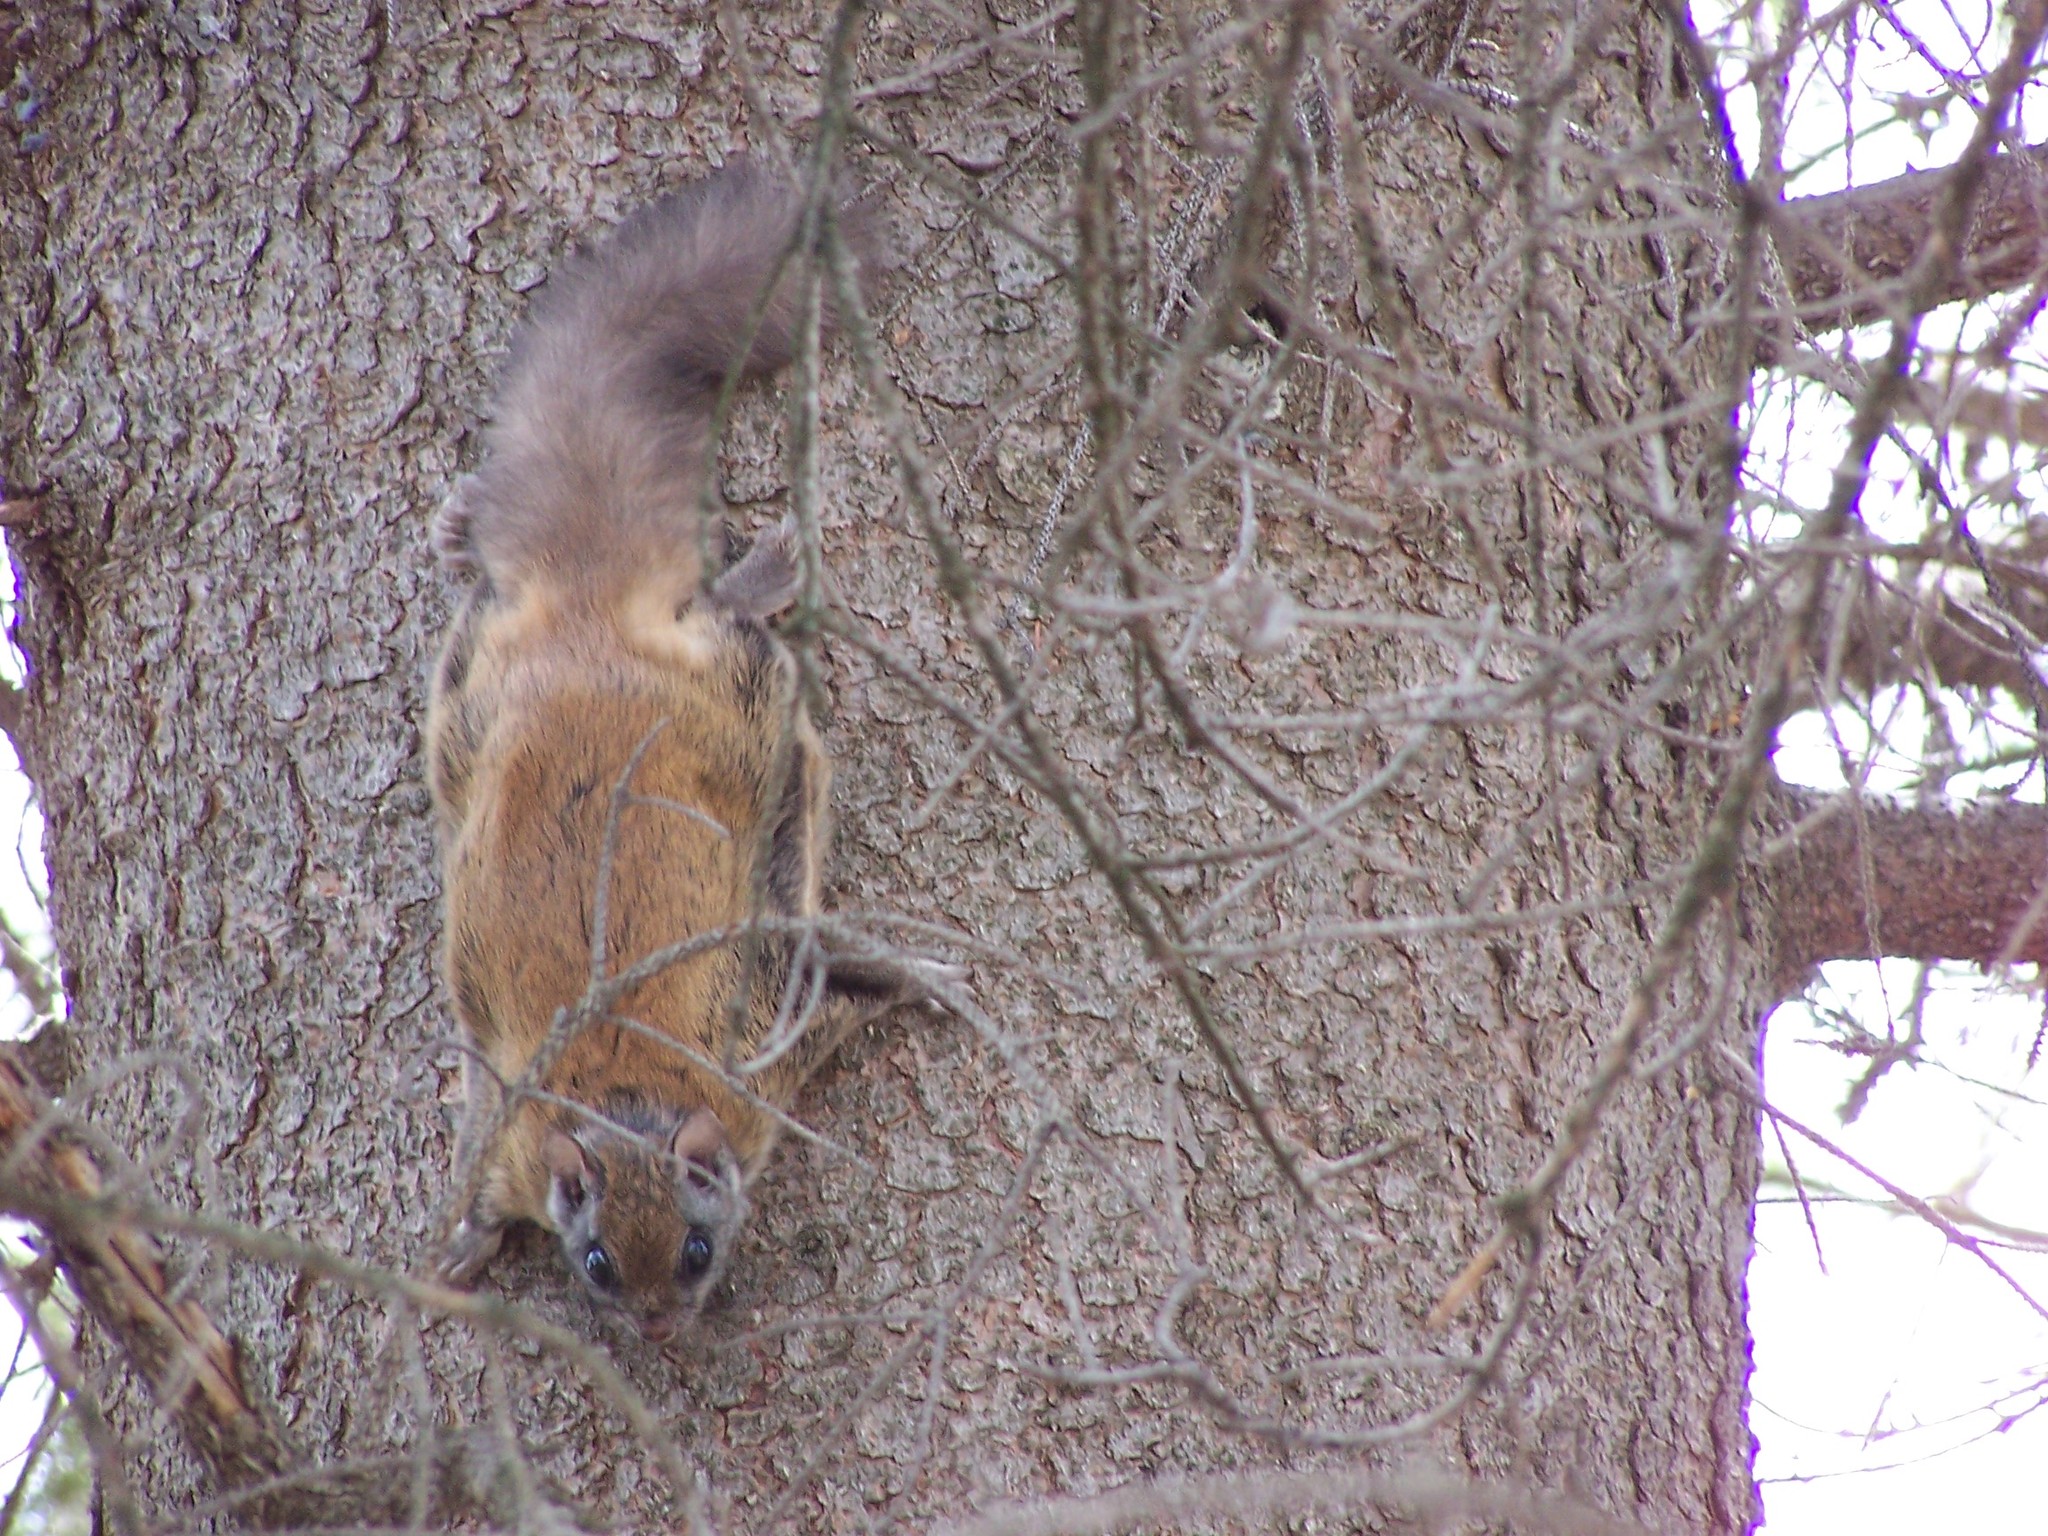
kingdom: Animalia
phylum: Chordata
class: Mammalia
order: Rodentia
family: Sciuridae
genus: Glaucomys
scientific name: Glaucomys sabrinus
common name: Northern flying squirrel
